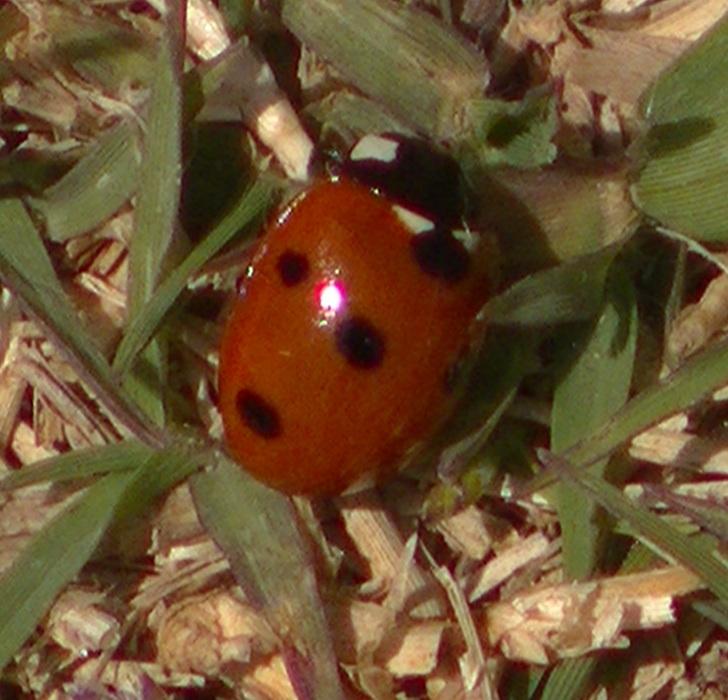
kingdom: Animalia
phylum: Arthropoda
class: Insecta
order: Coleoptera
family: Coccinellidae
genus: Coccinella
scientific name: Coccinella septempunctata
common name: Sevenspotted lady beetle
